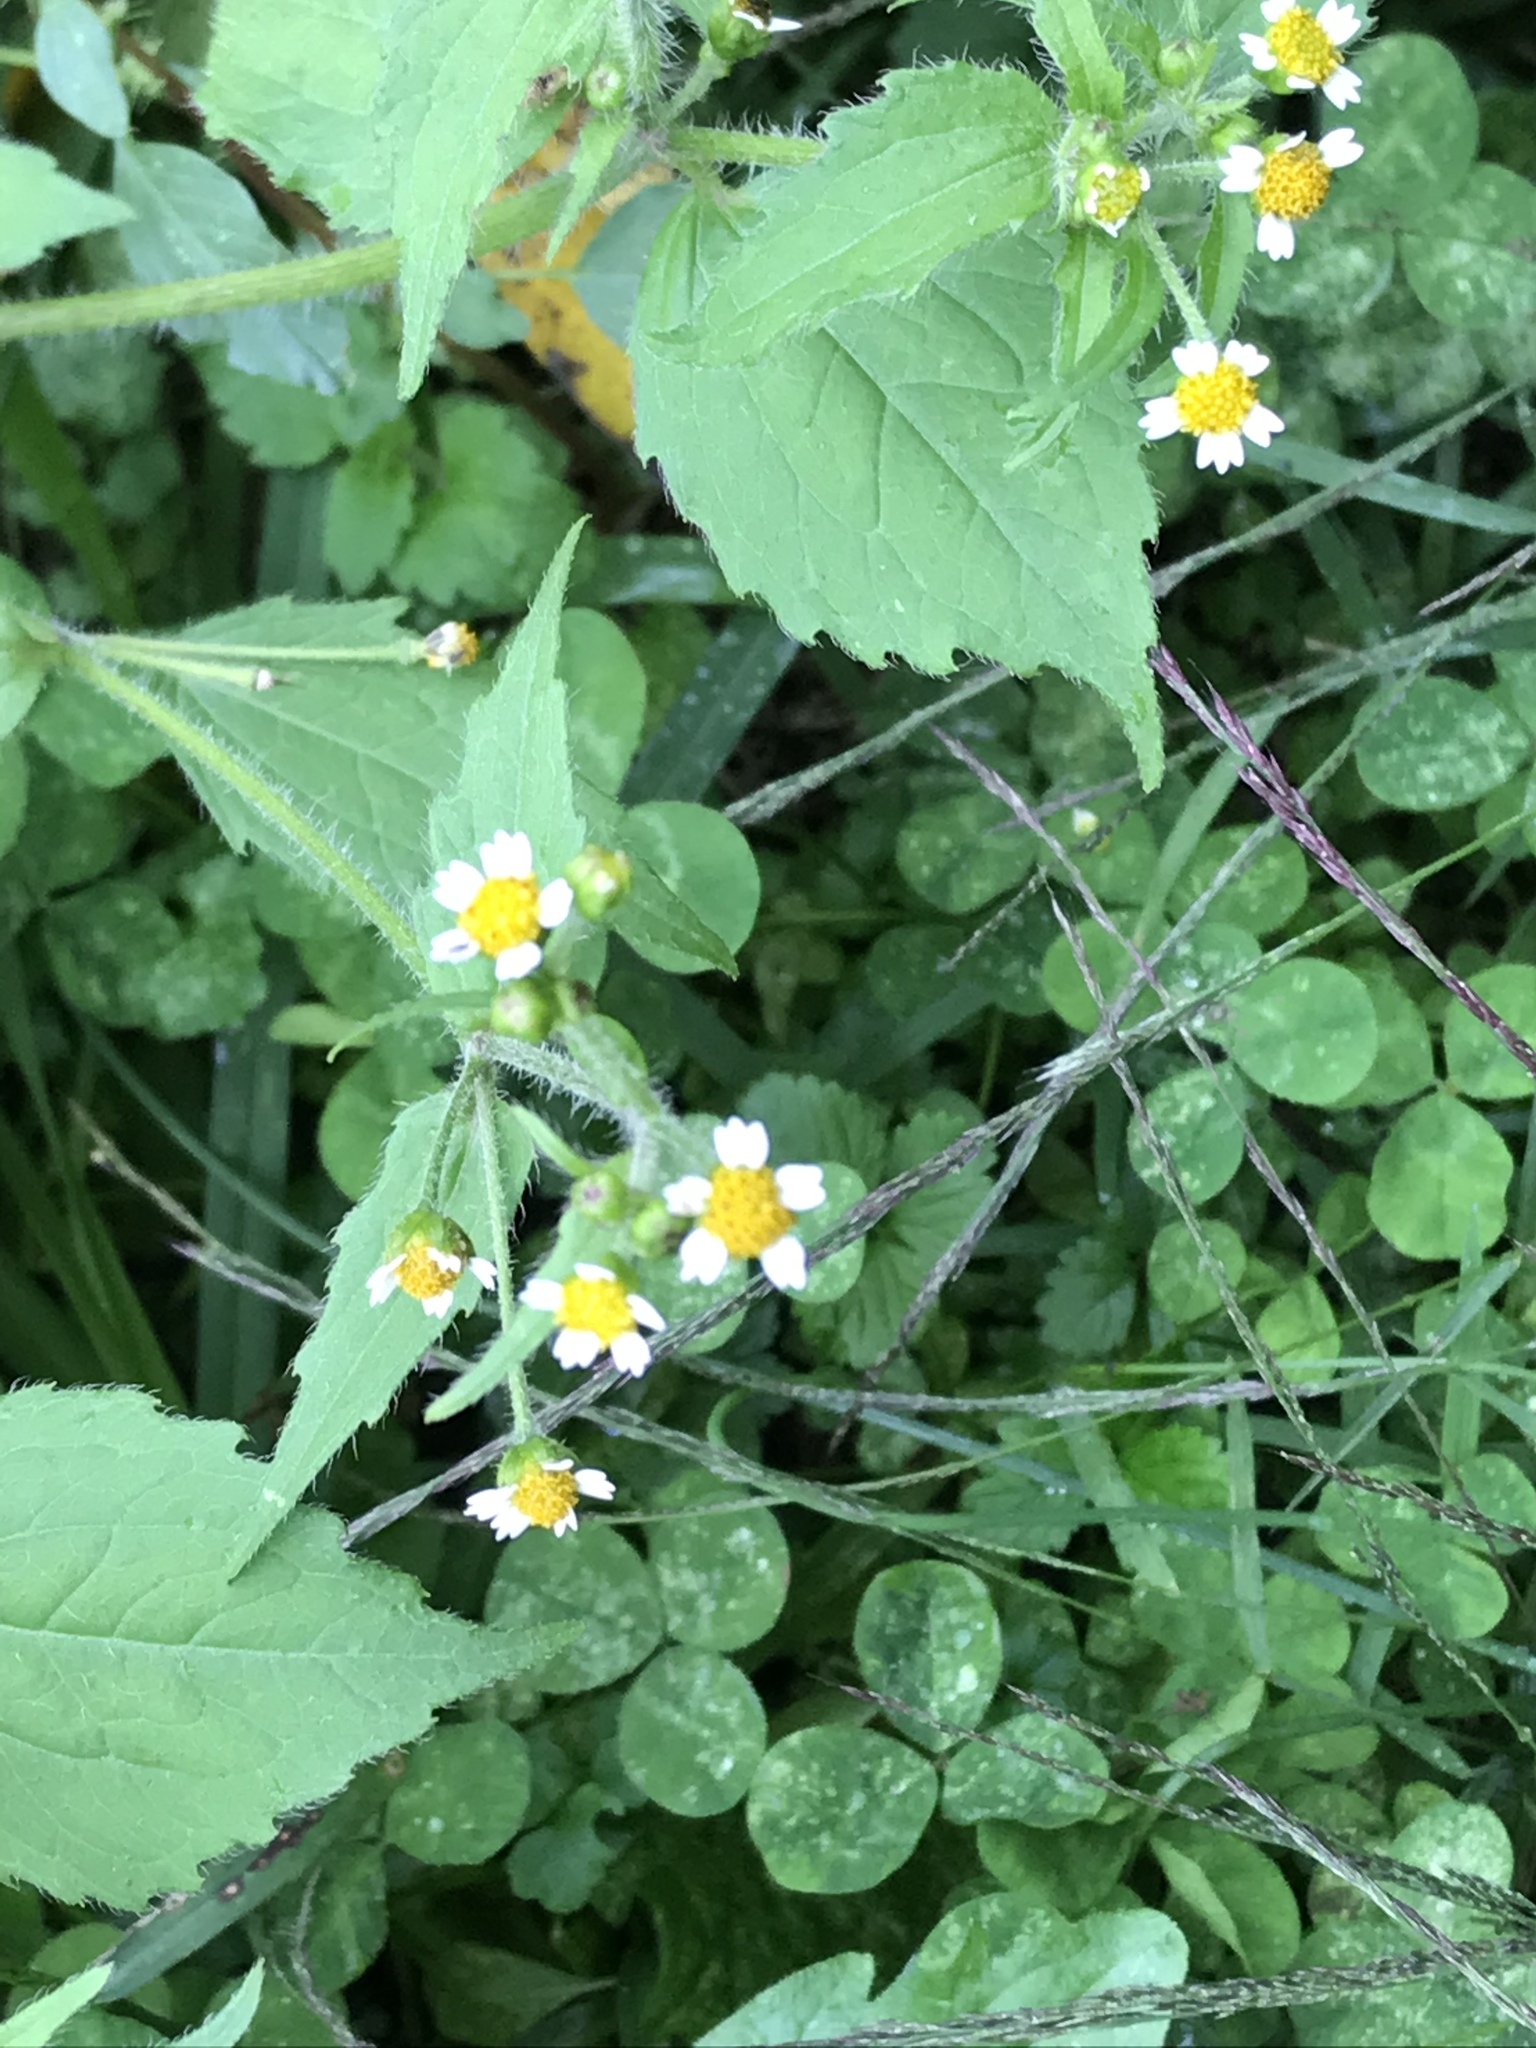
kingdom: Plantae
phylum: Tracheophyta
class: Magnoliopsida
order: Asterales
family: Asteraceae
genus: Galinsoga
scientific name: Galinsoga quadriradiata
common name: Shaggy soldier
